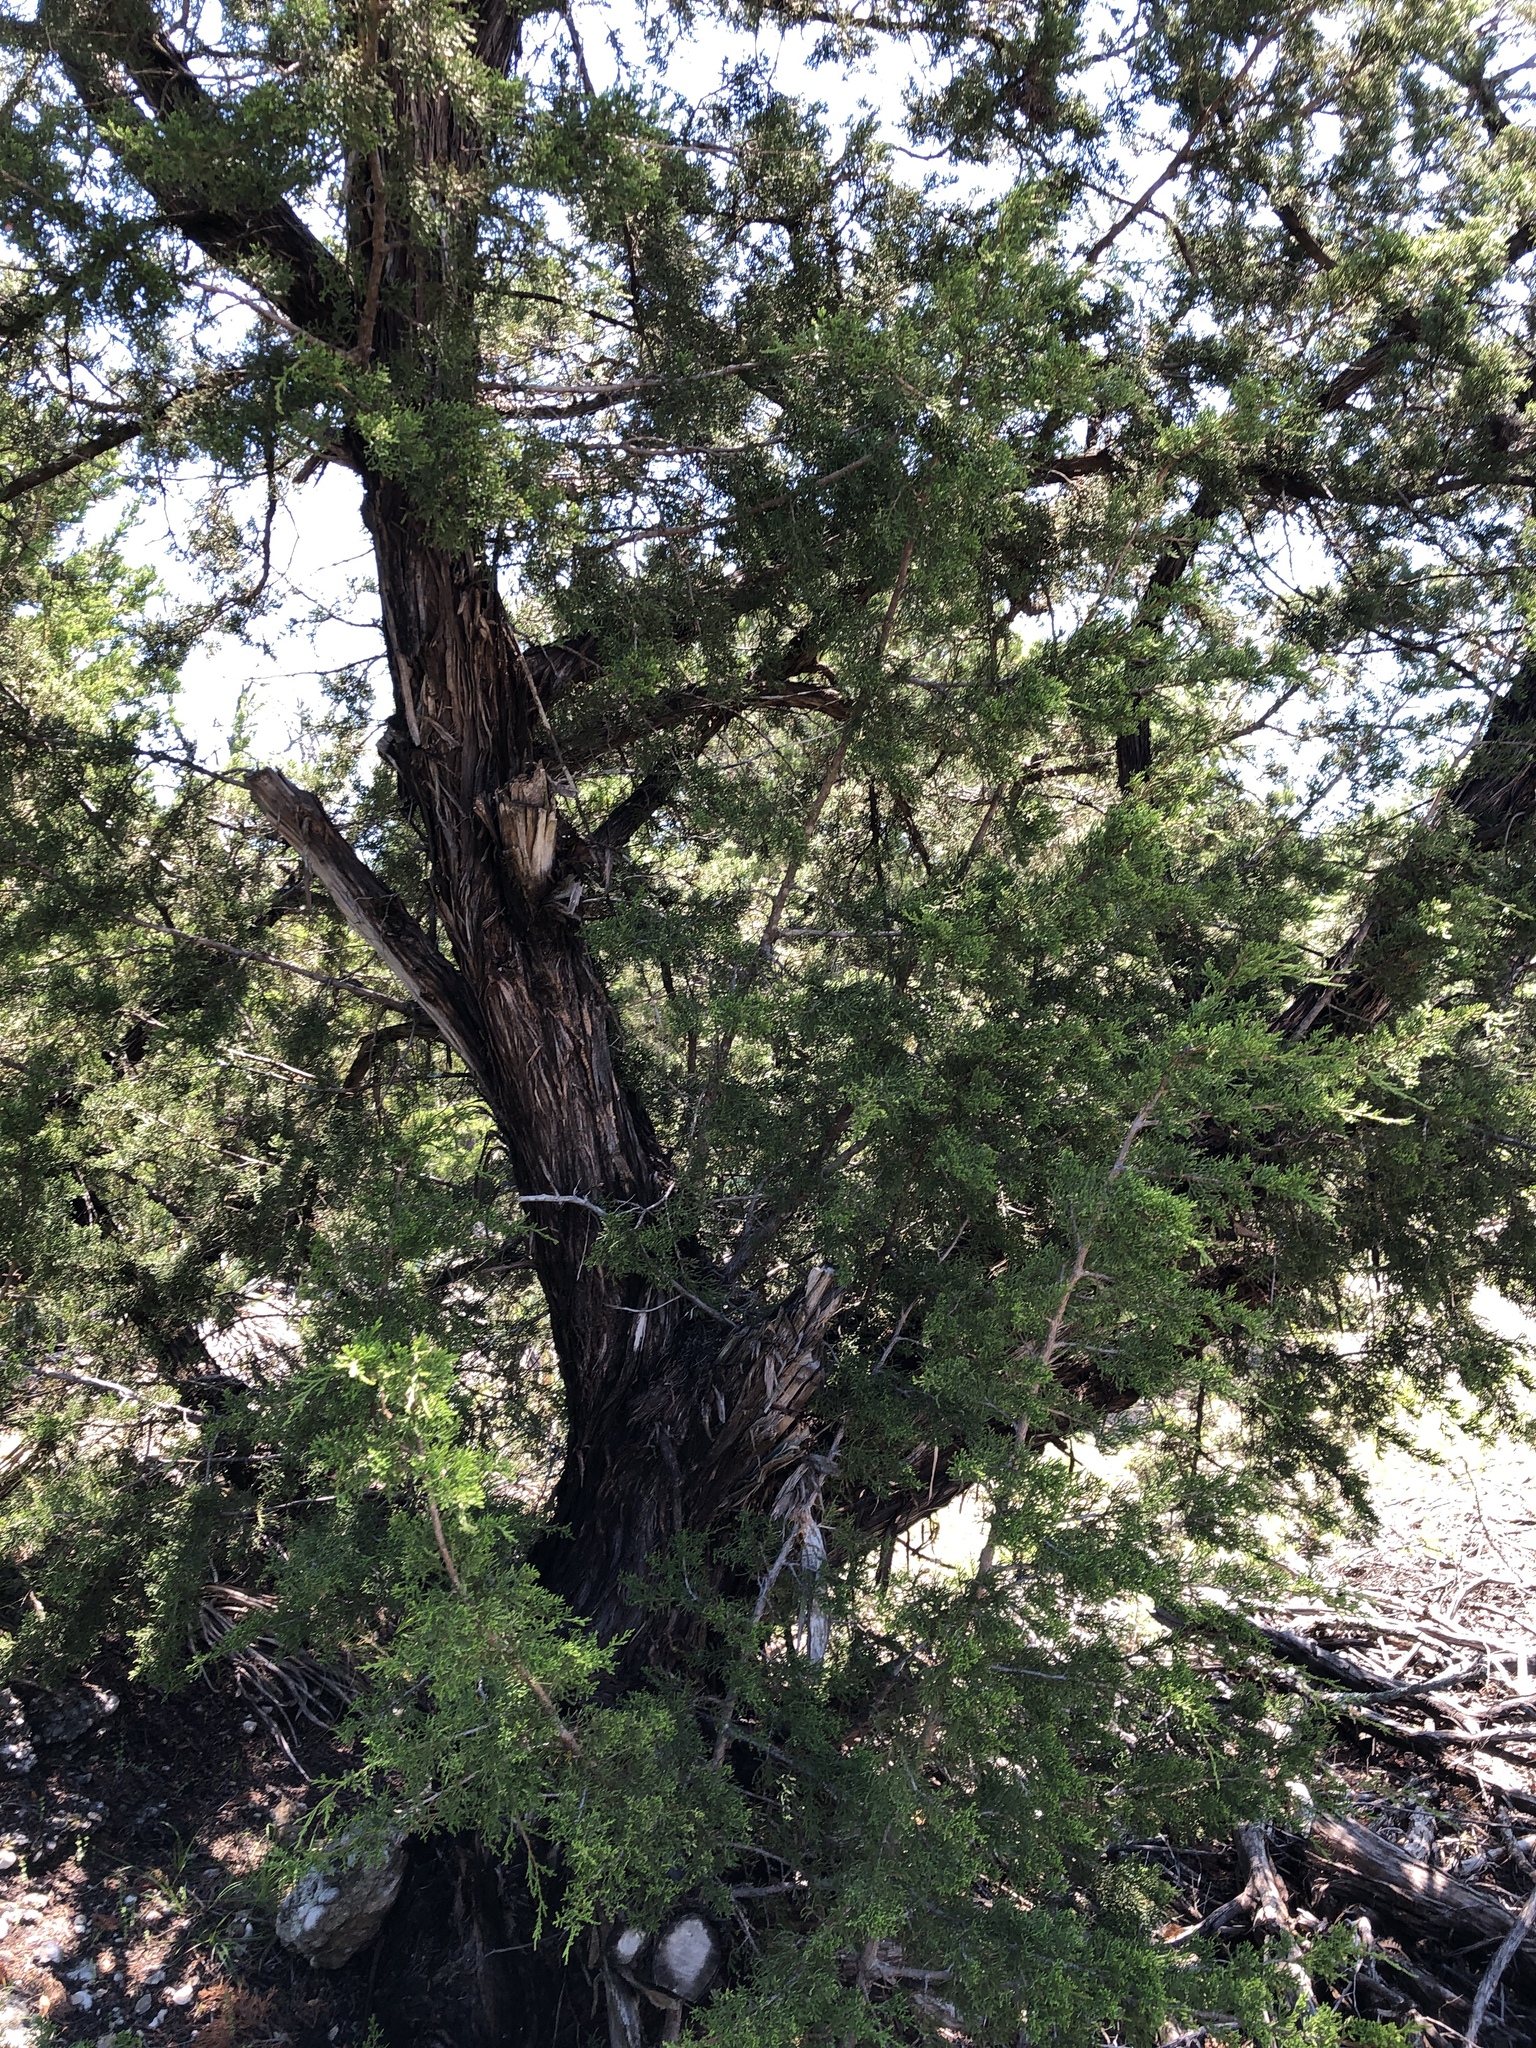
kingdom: Plantae
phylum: Tracheophyta
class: Pinopsida
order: Pinales
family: Cupressaceae
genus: Juniperus
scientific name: Juniperus ashei
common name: Mexican juniper
